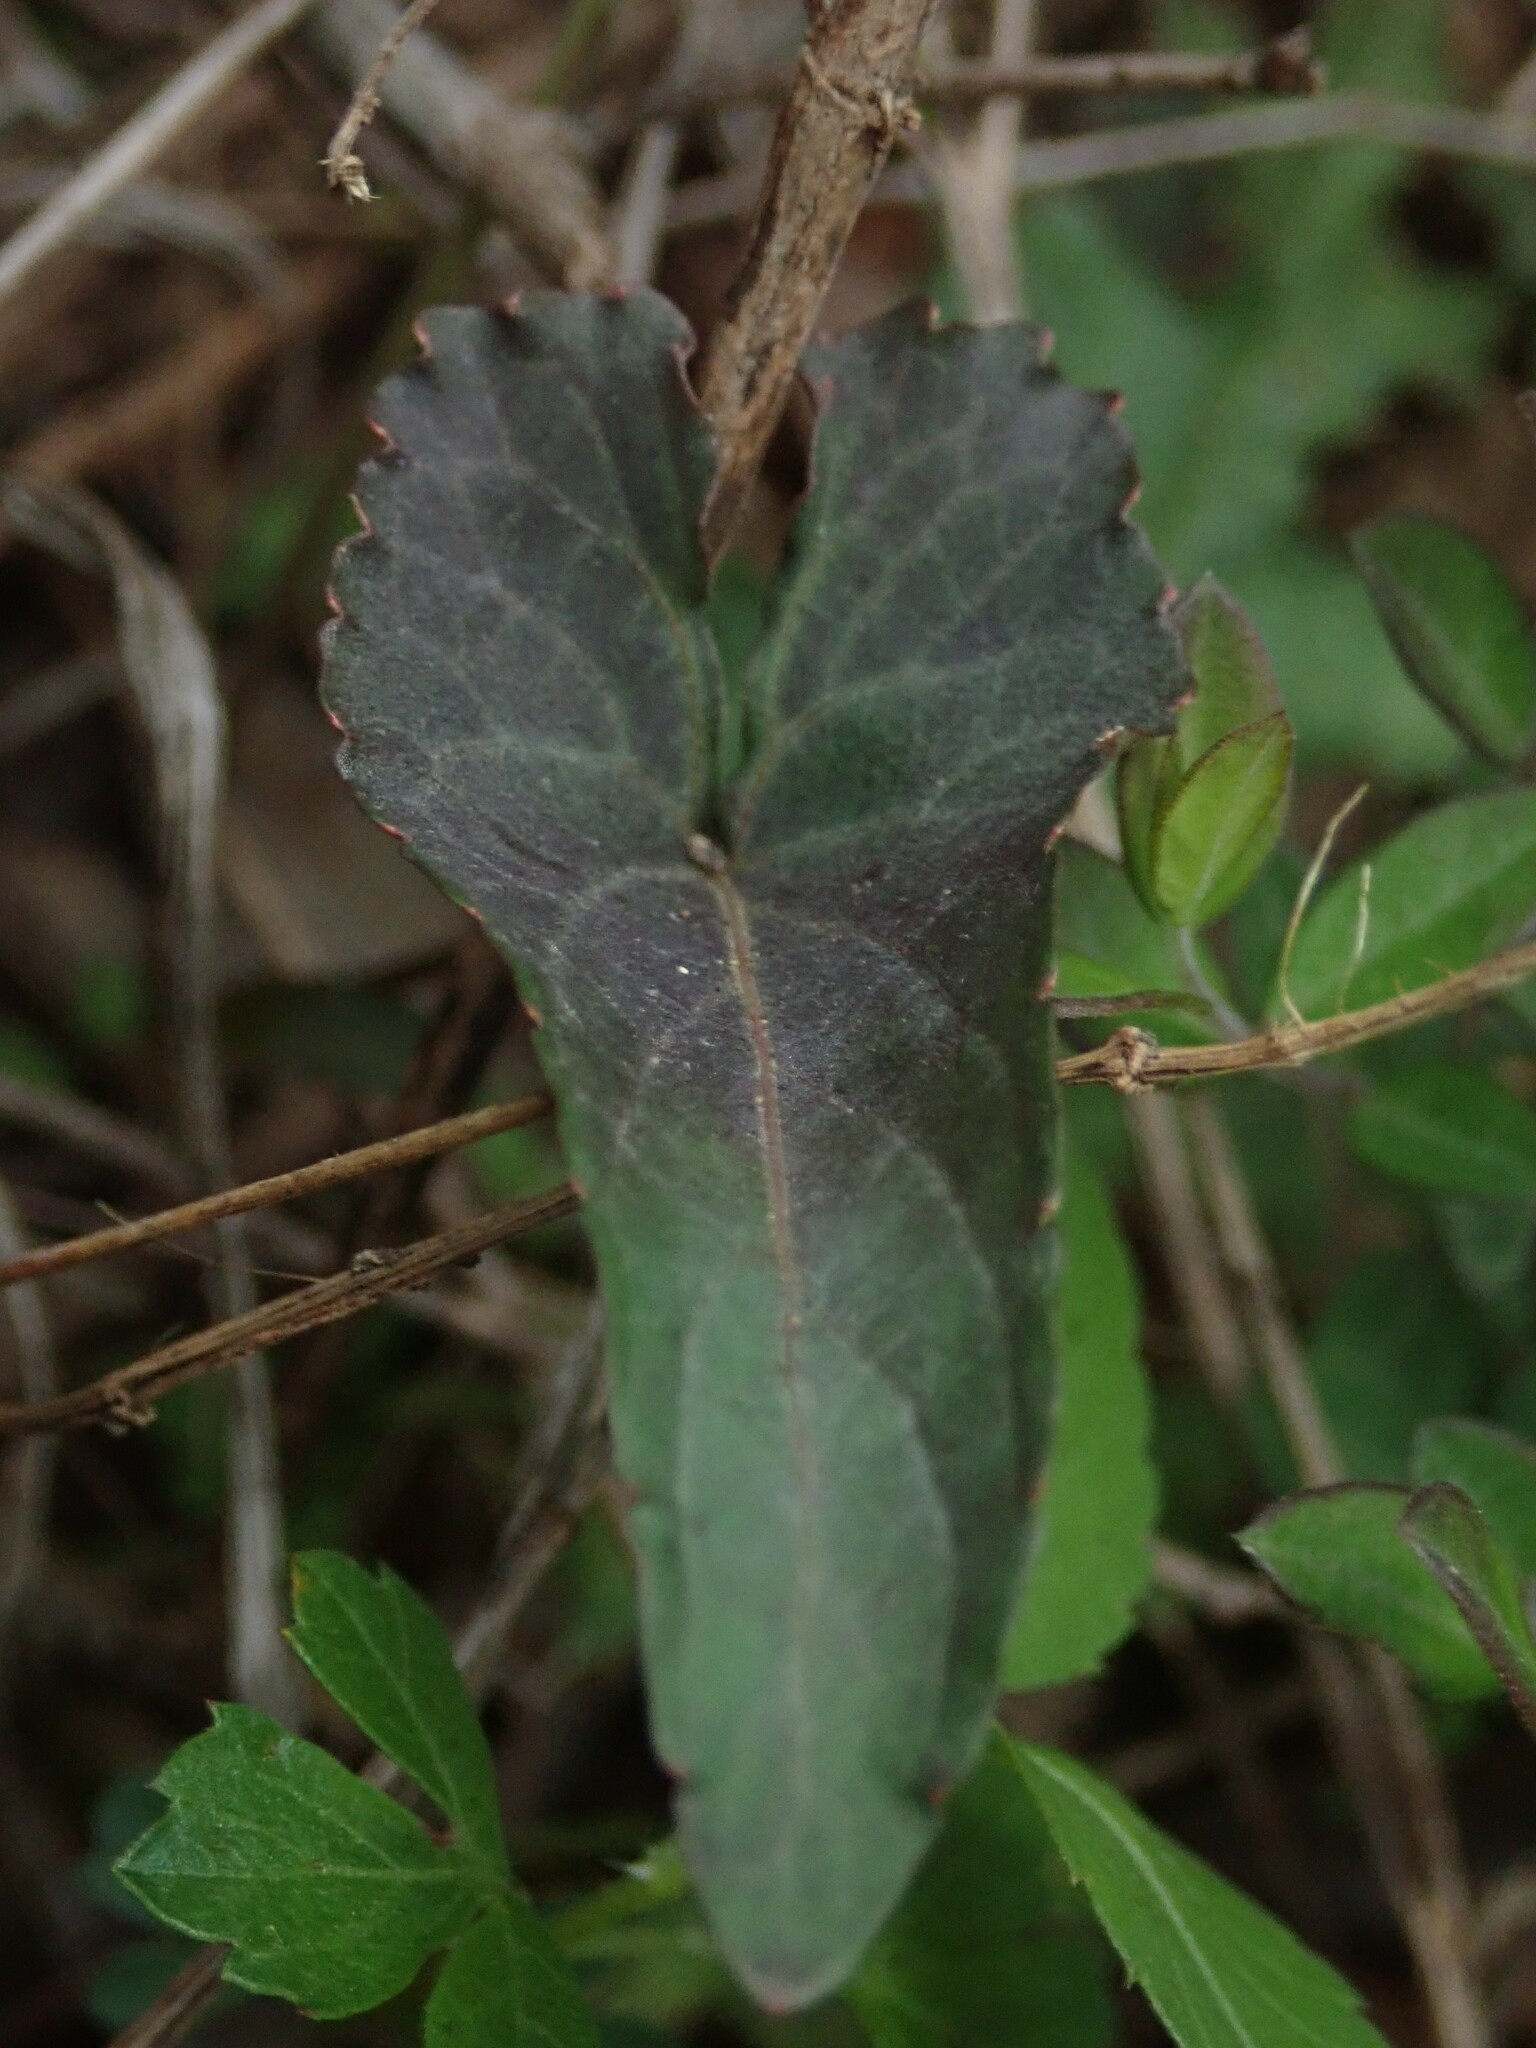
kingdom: Plantae
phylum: Tracheophyta
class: Magnoliopsida
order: Malpighiales
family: Violaceae
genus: Viola
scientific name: Viola
